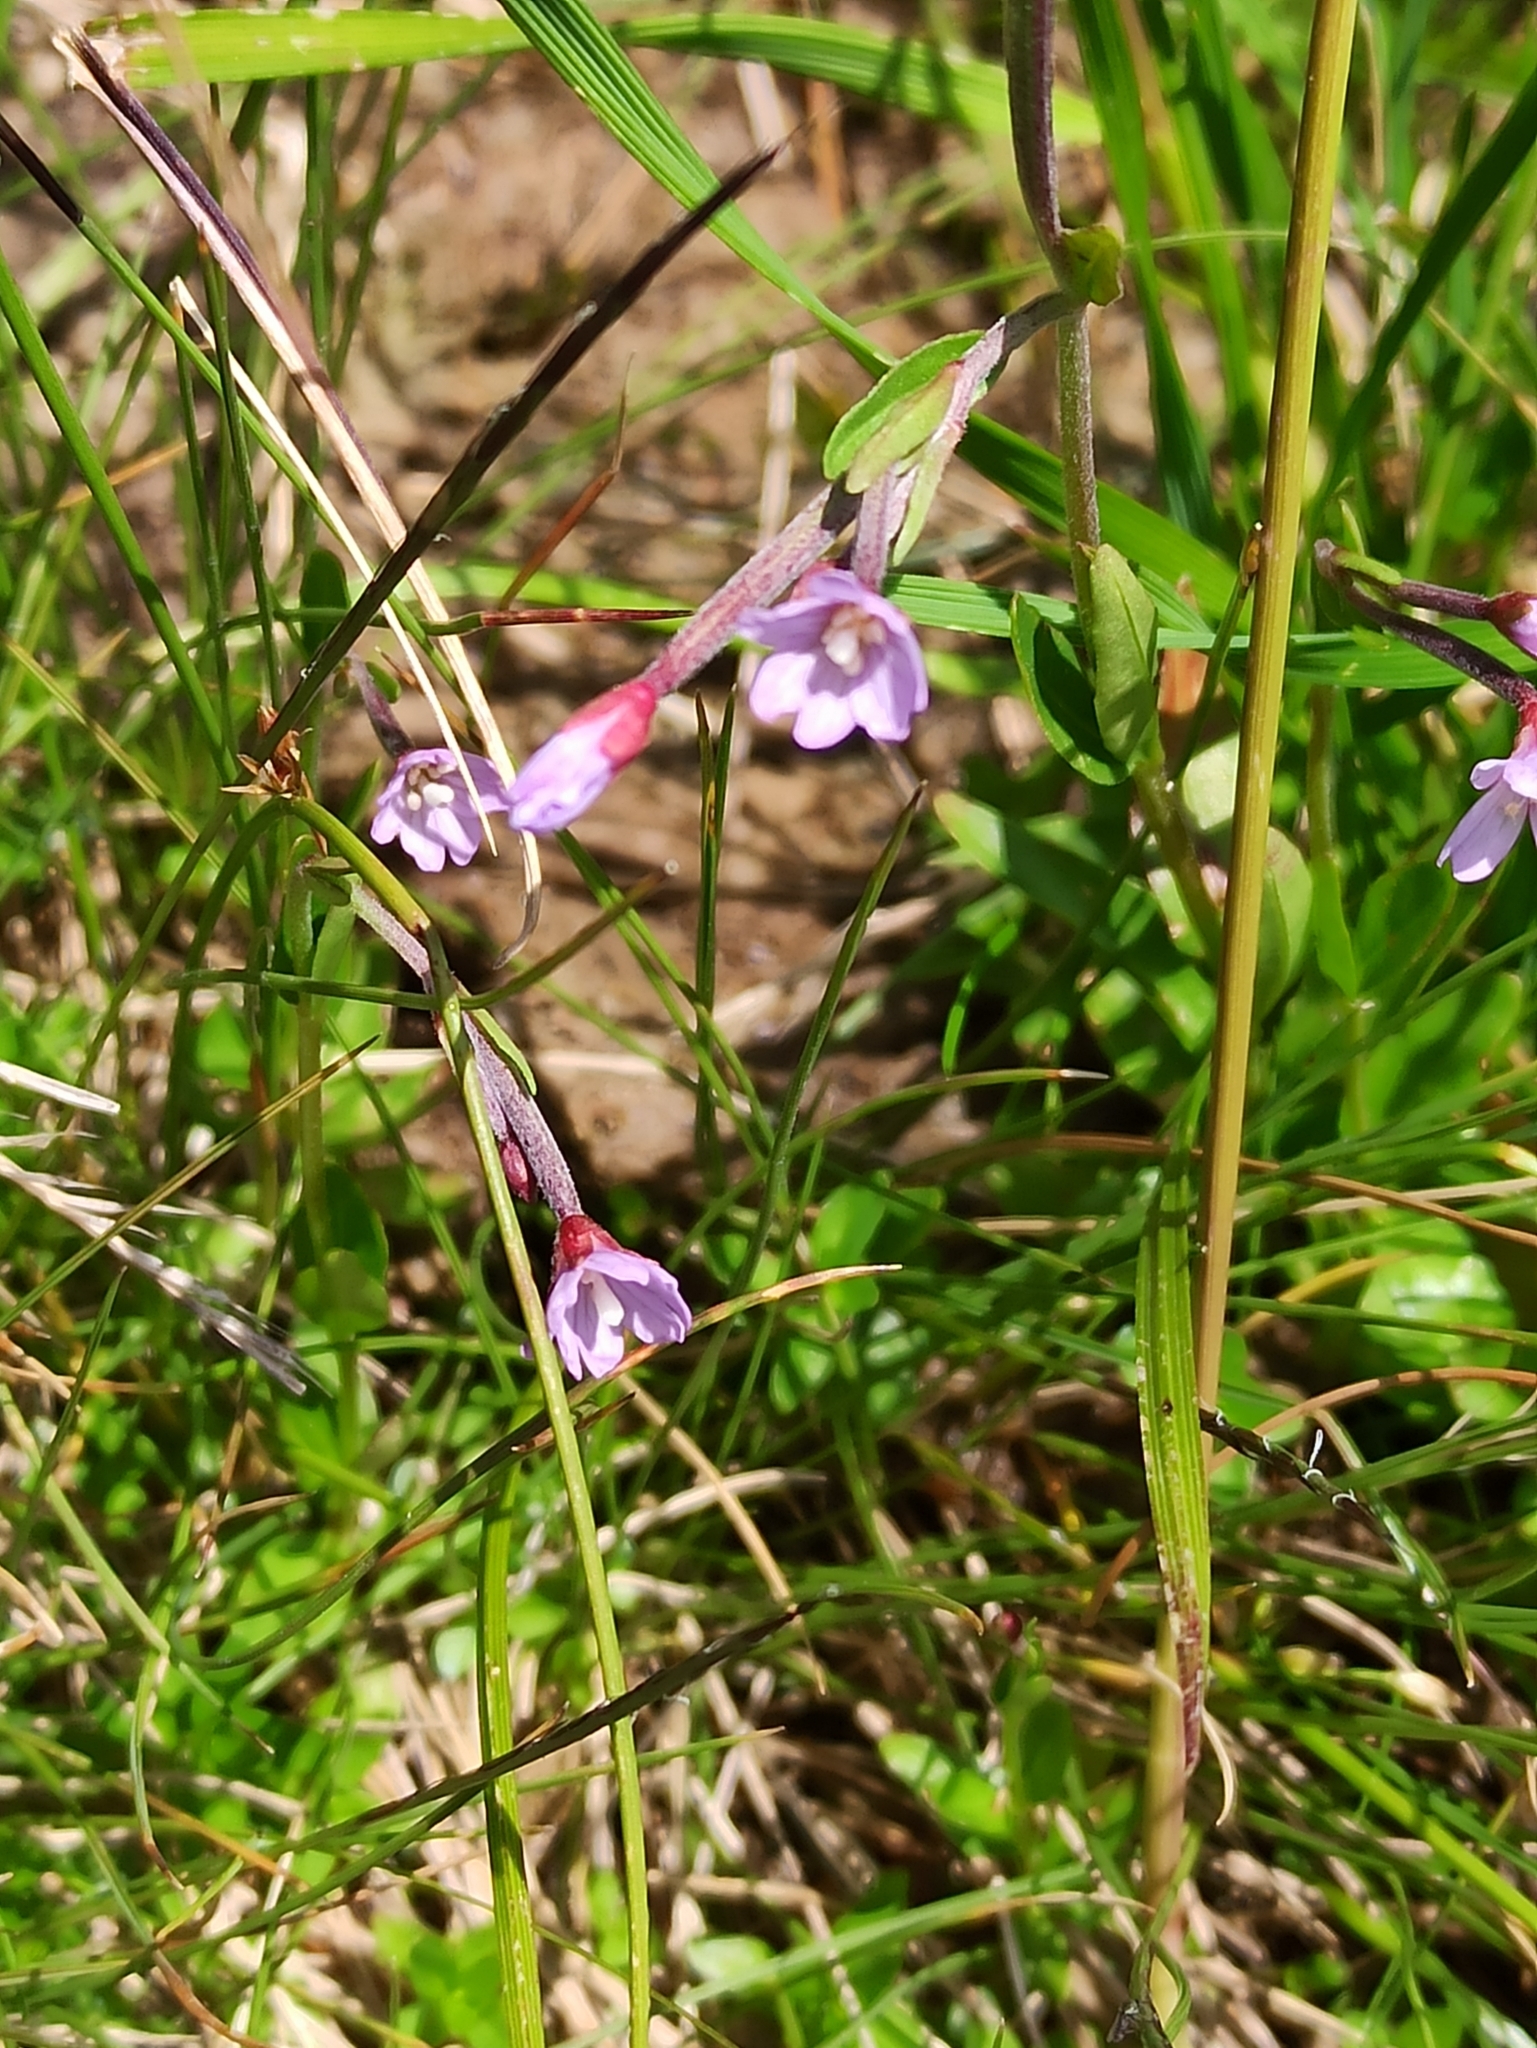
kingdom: Plantae
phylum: Tracheophyta
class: Magnoliopsida
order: Myrtales
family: Onagraceae
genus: Epilobium
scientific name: Epilobium nutans
